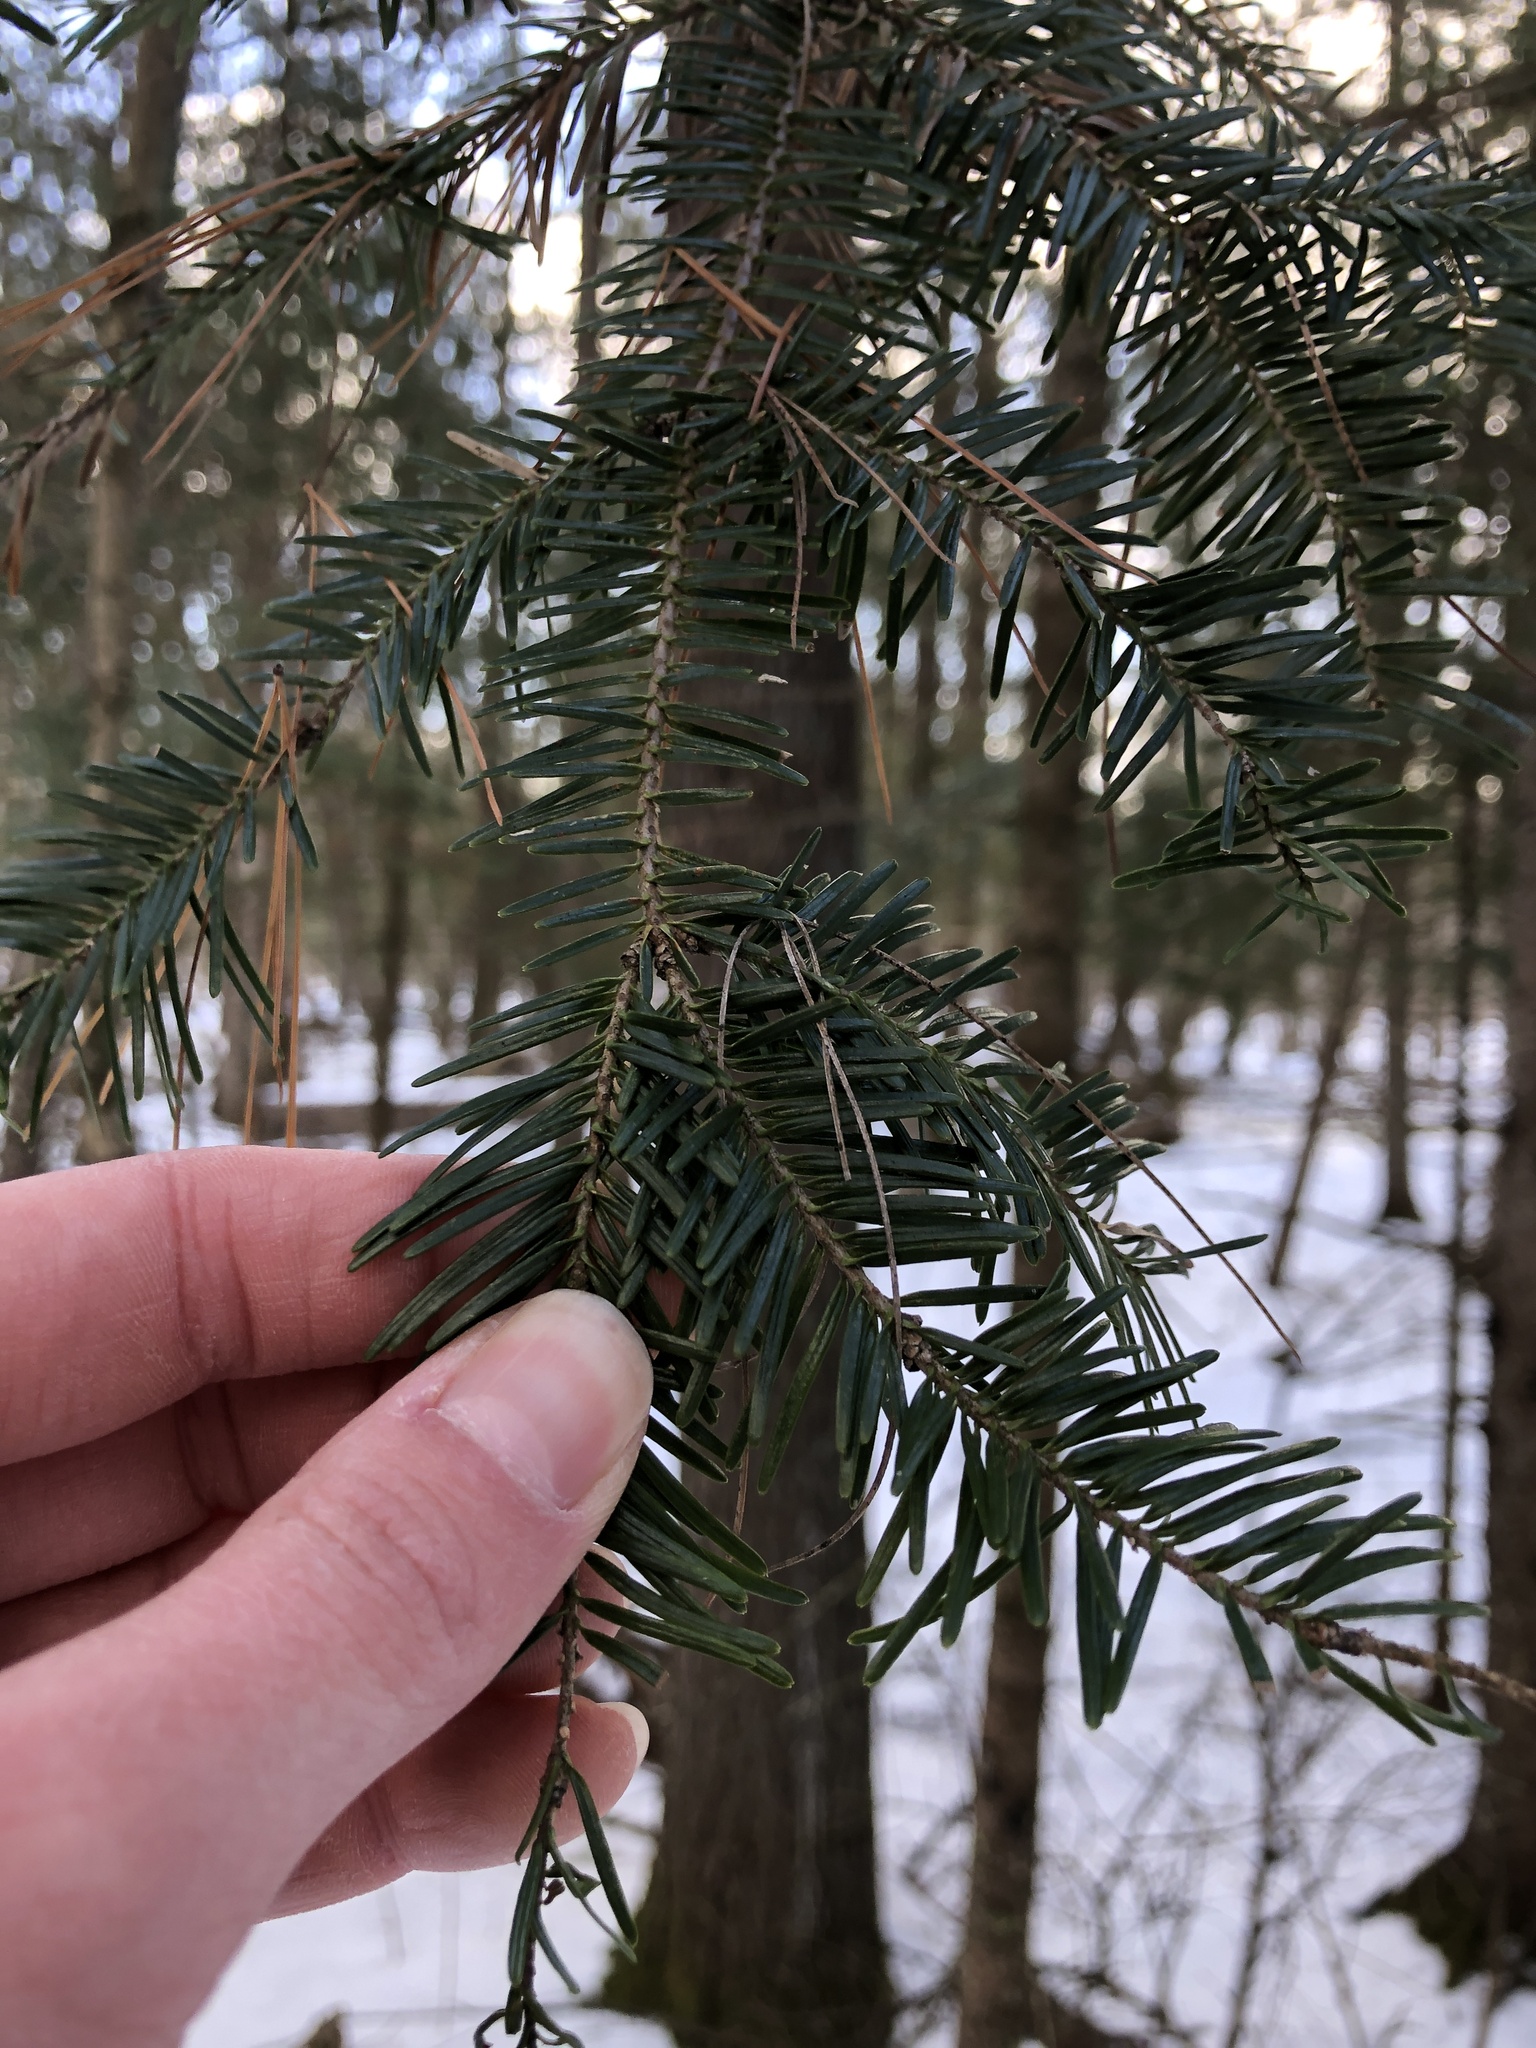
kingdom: Plantae
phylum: Tracheophyta
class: Pinopsida
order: Pinales
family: Pinaceae
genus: Abies
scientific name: Abies balsamea
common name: Balsam fir
